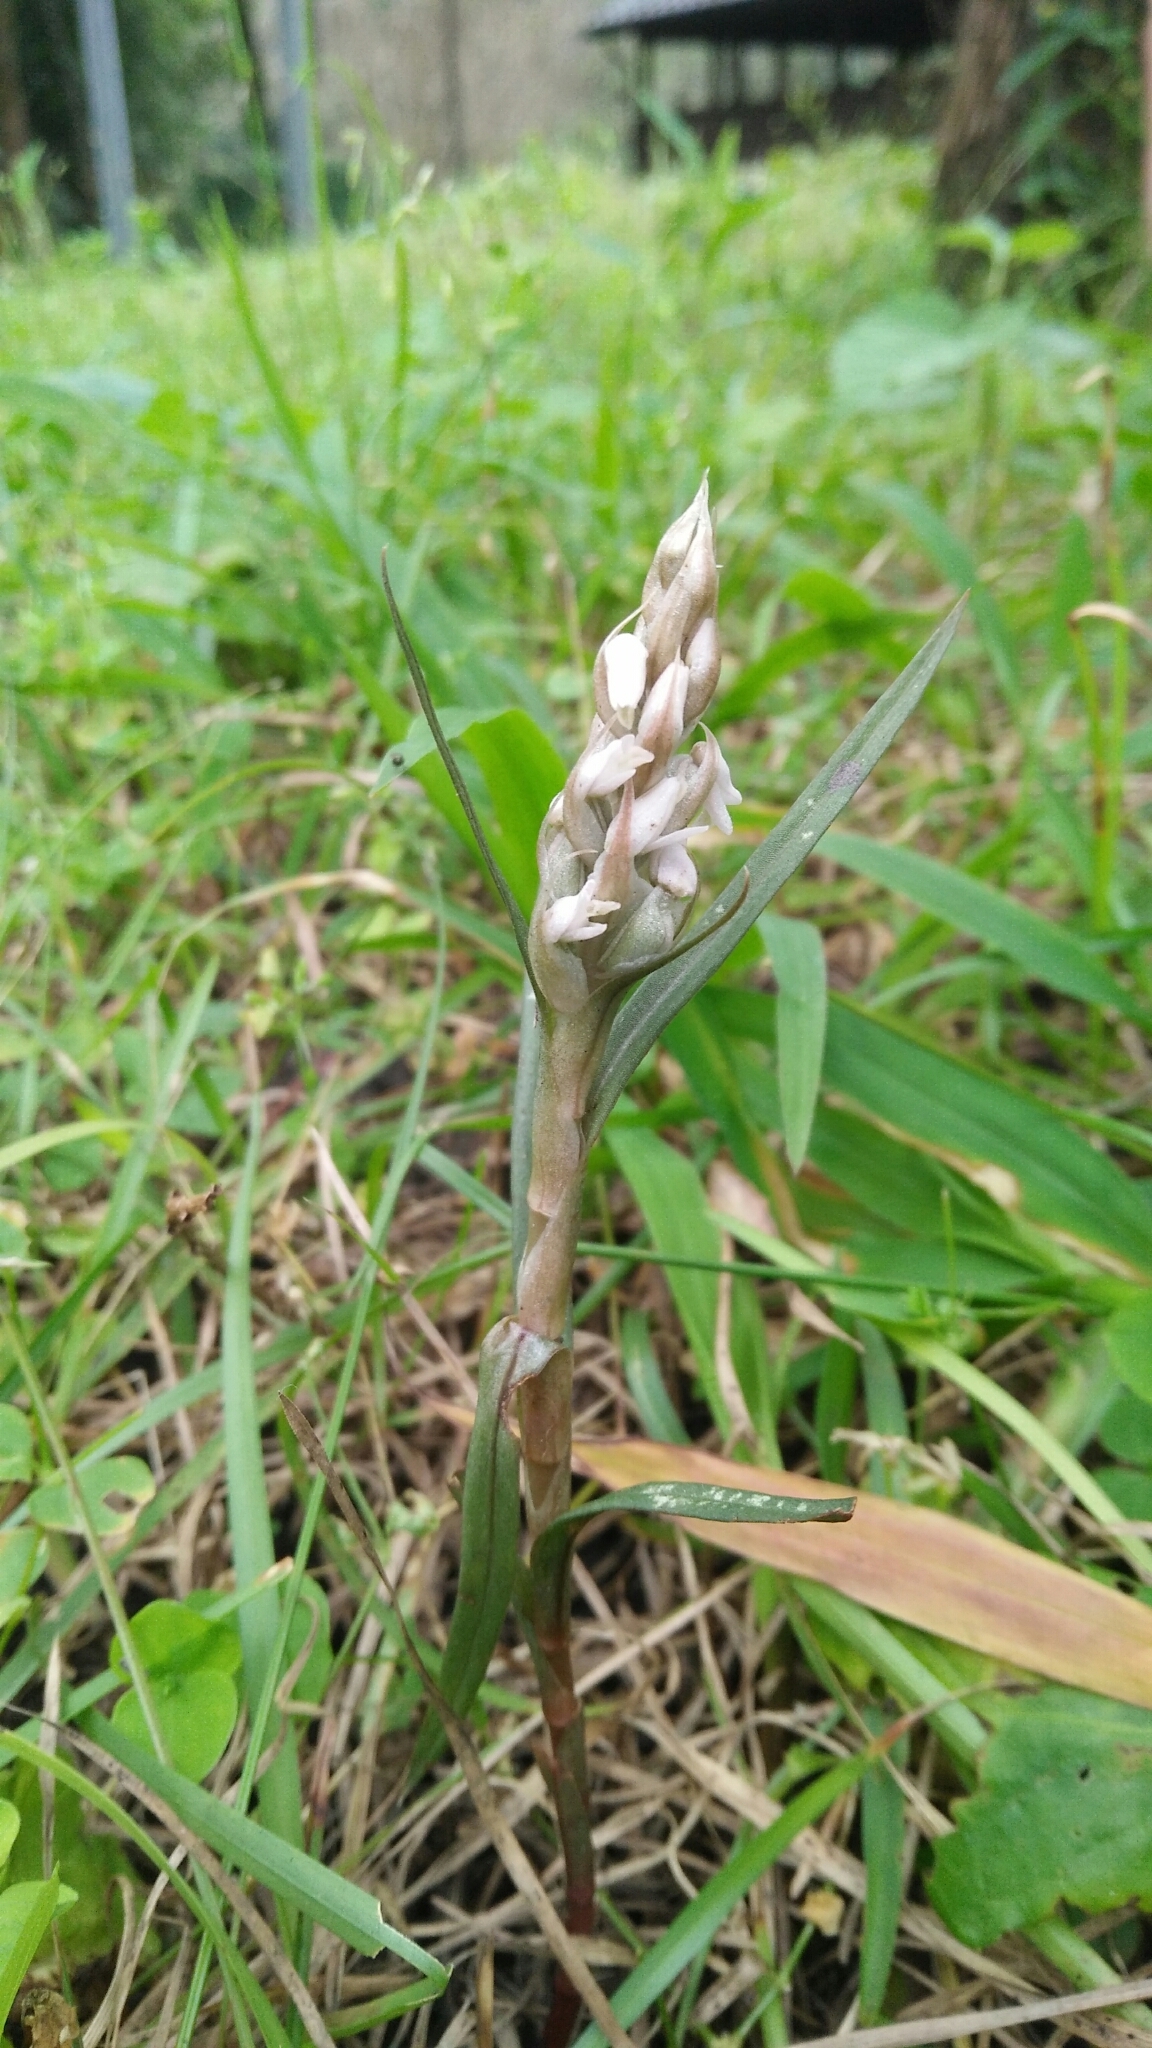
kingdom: Plantae
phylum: Tracheophyta
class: Liliopsida
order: Asparagales
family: Orchidaceae
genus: Zeuxine
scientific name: Zeuxine strateumatica
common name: Soldier's orchid
